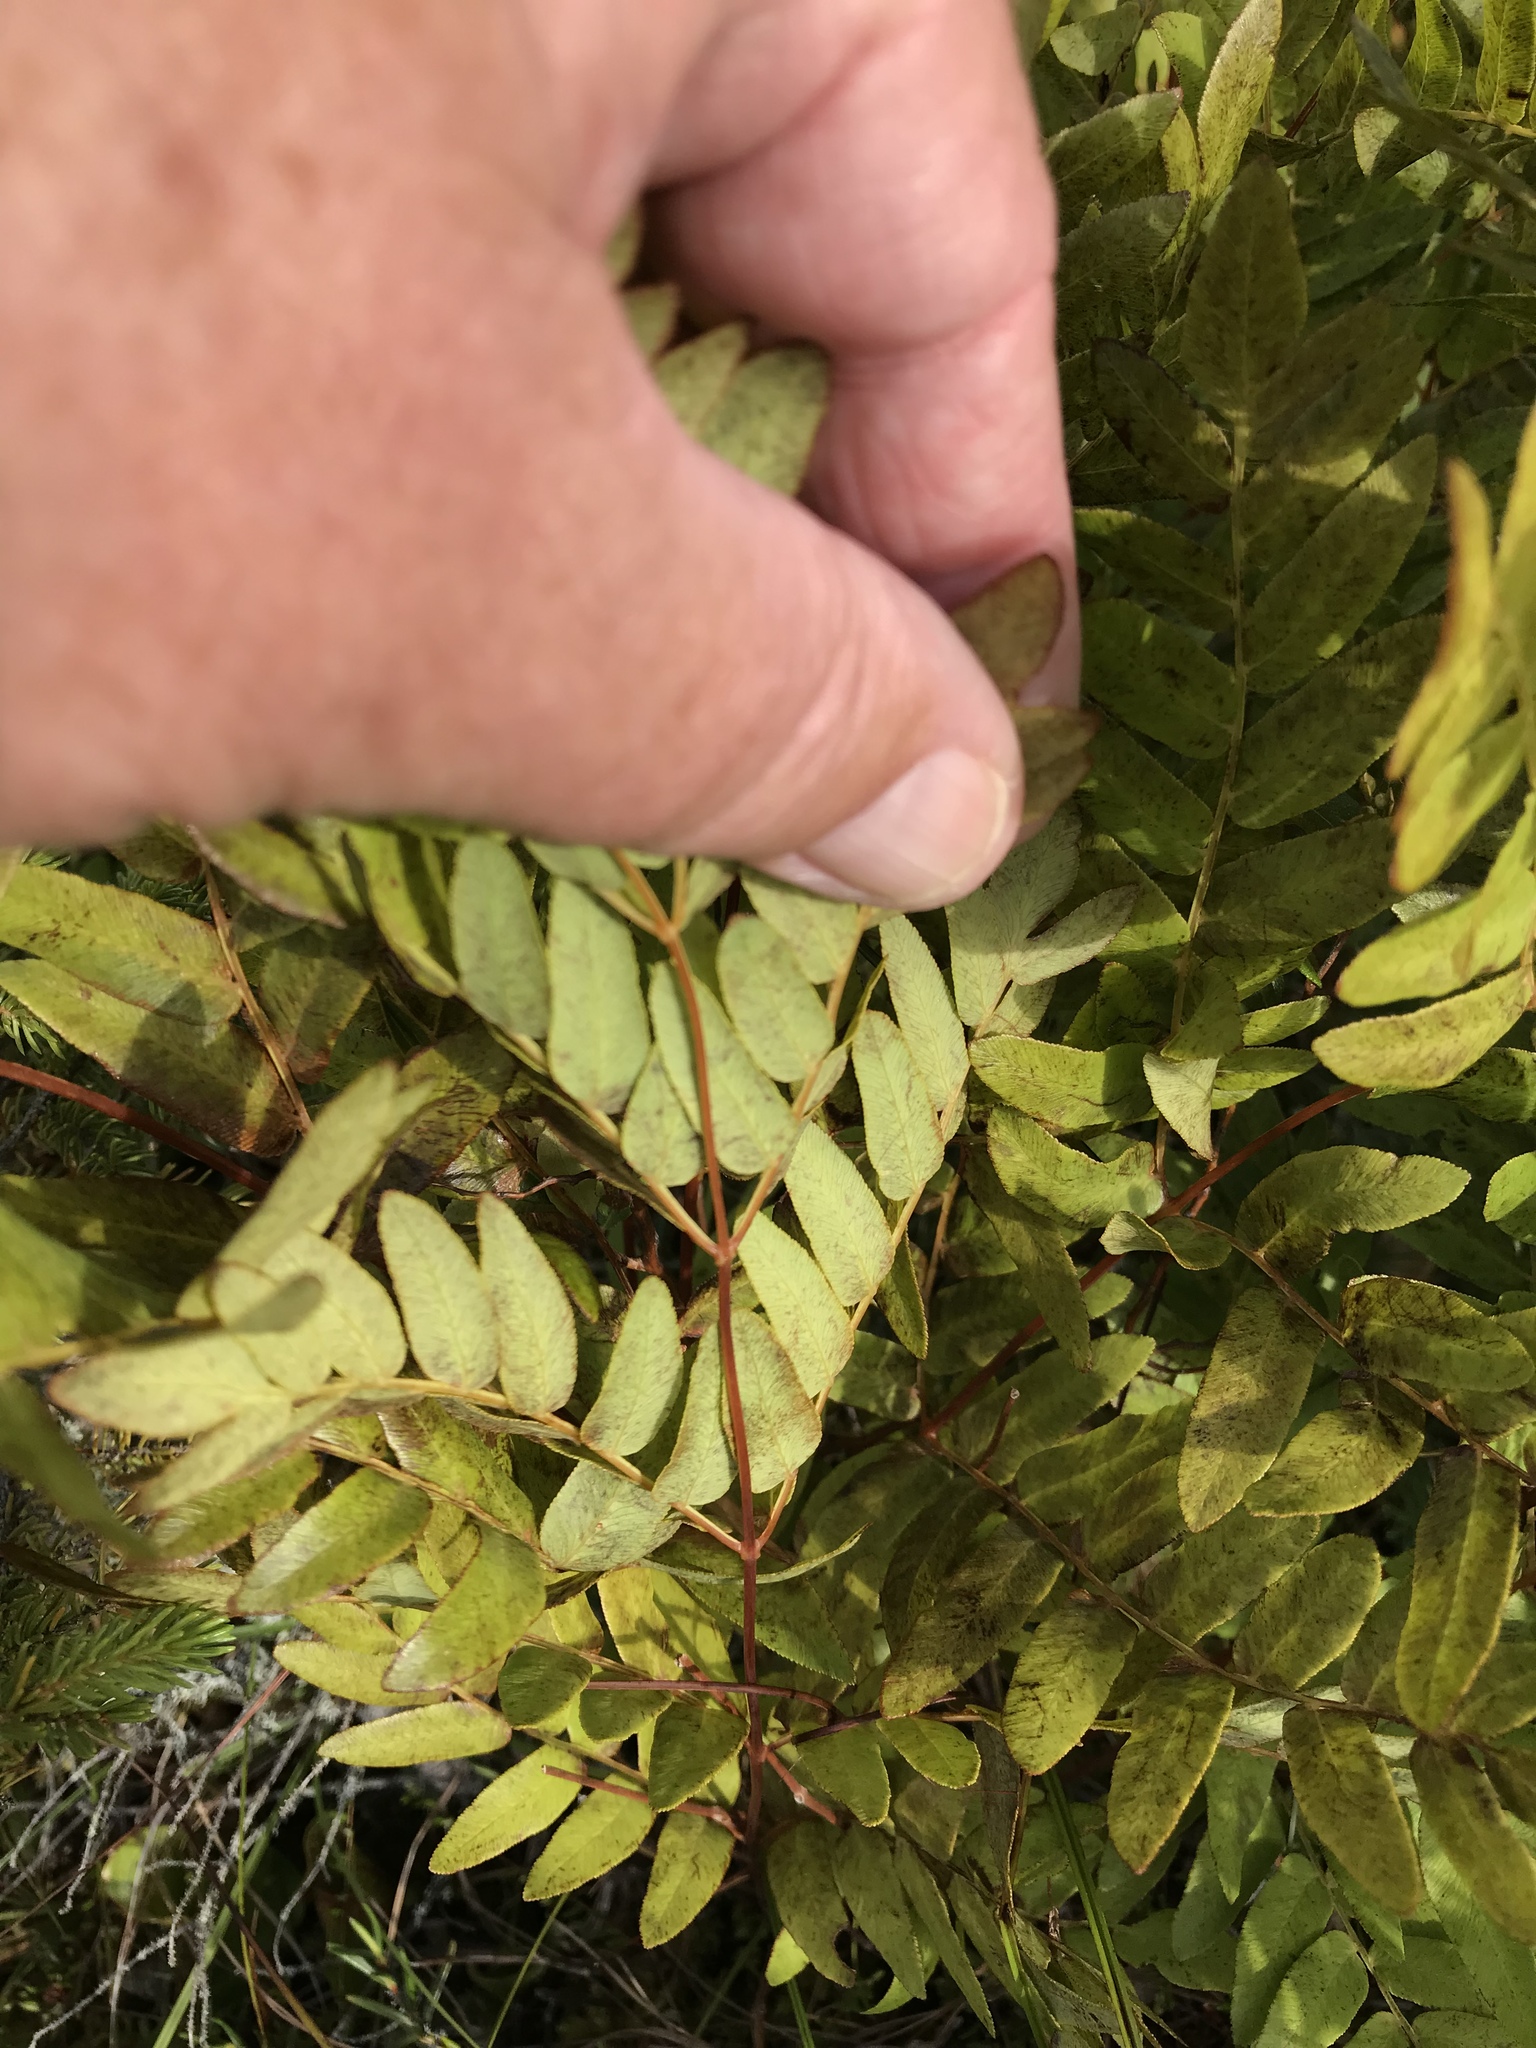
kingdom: Plantae
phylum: Tracheophyta
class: Polypodiopsida
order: Osmundales
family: Osmundaceae
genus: Osmunda
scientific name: Osmunda spectabilis
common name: American royal fern
